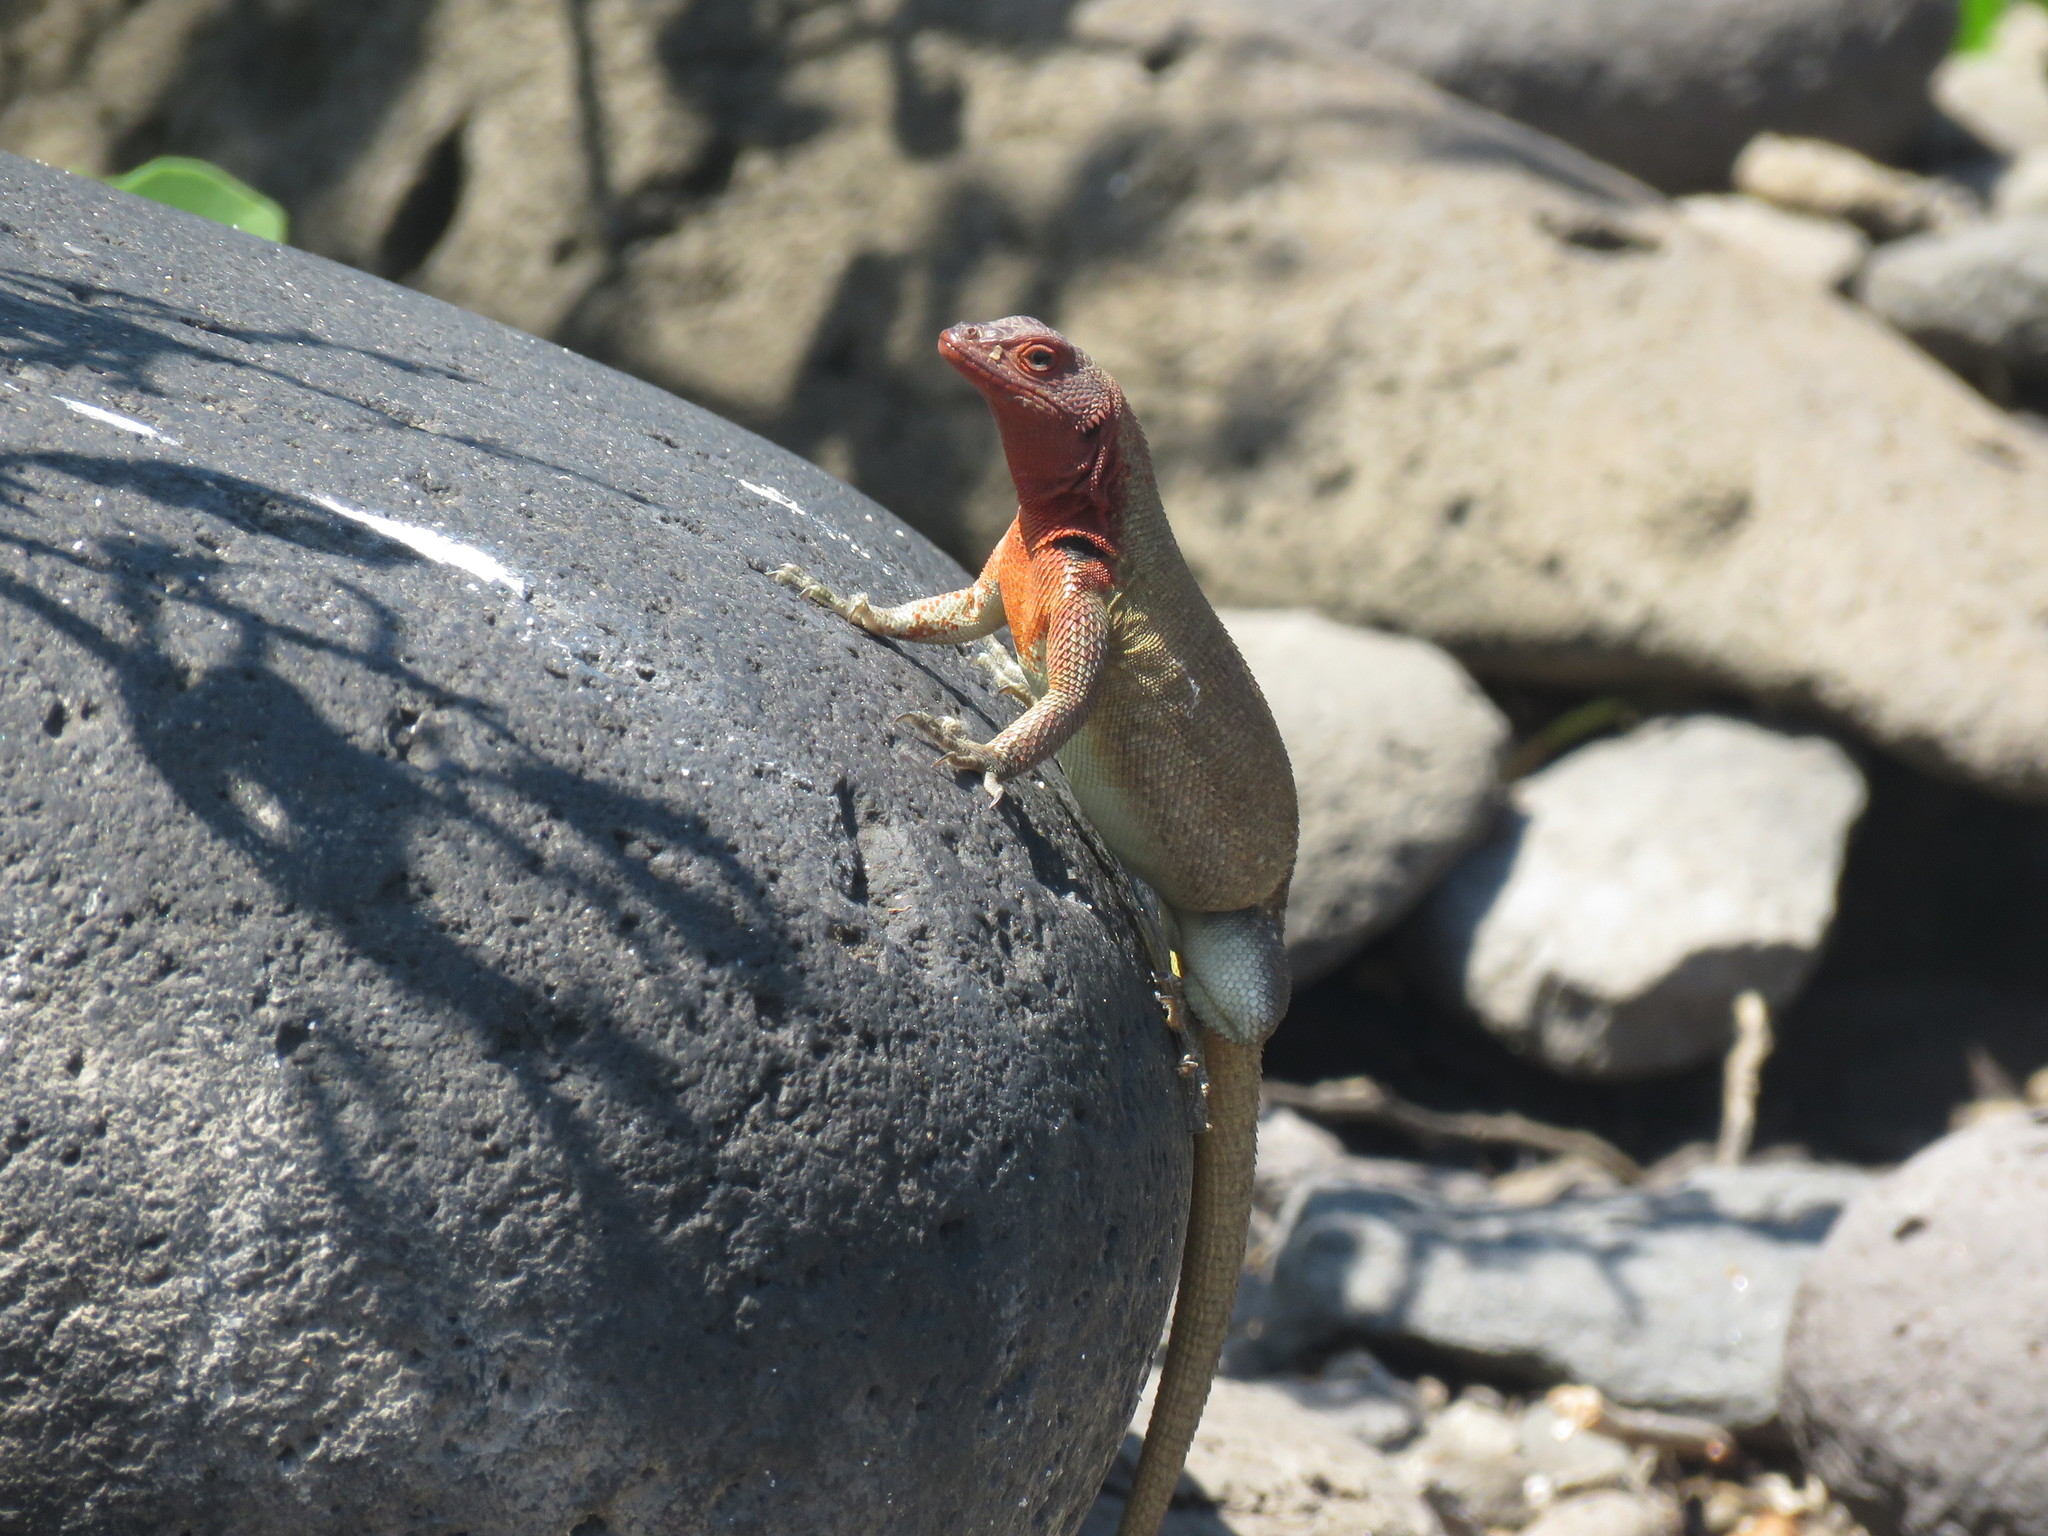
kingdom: Animalia
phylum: Chordata
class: Squamata
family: Tropiduridae
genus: Microlophus
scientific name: Microlophus delanonis
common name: Hood lava lizard
